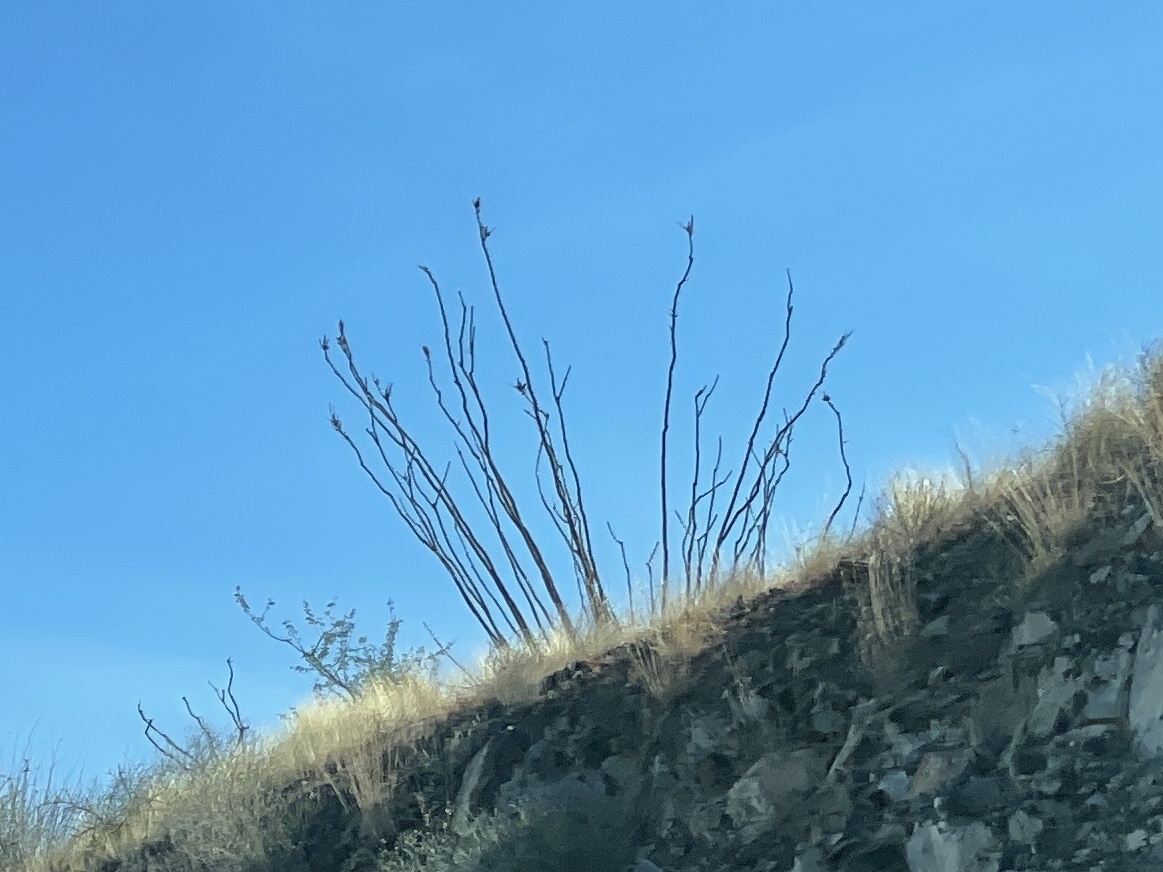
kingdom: Plantae
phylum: Tracheophyta
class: Magnoliopsida
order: Ericales
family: Fouquieriaceae
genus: Fouquieria
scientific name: Fouquieria splendens
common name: Vine-cactus
